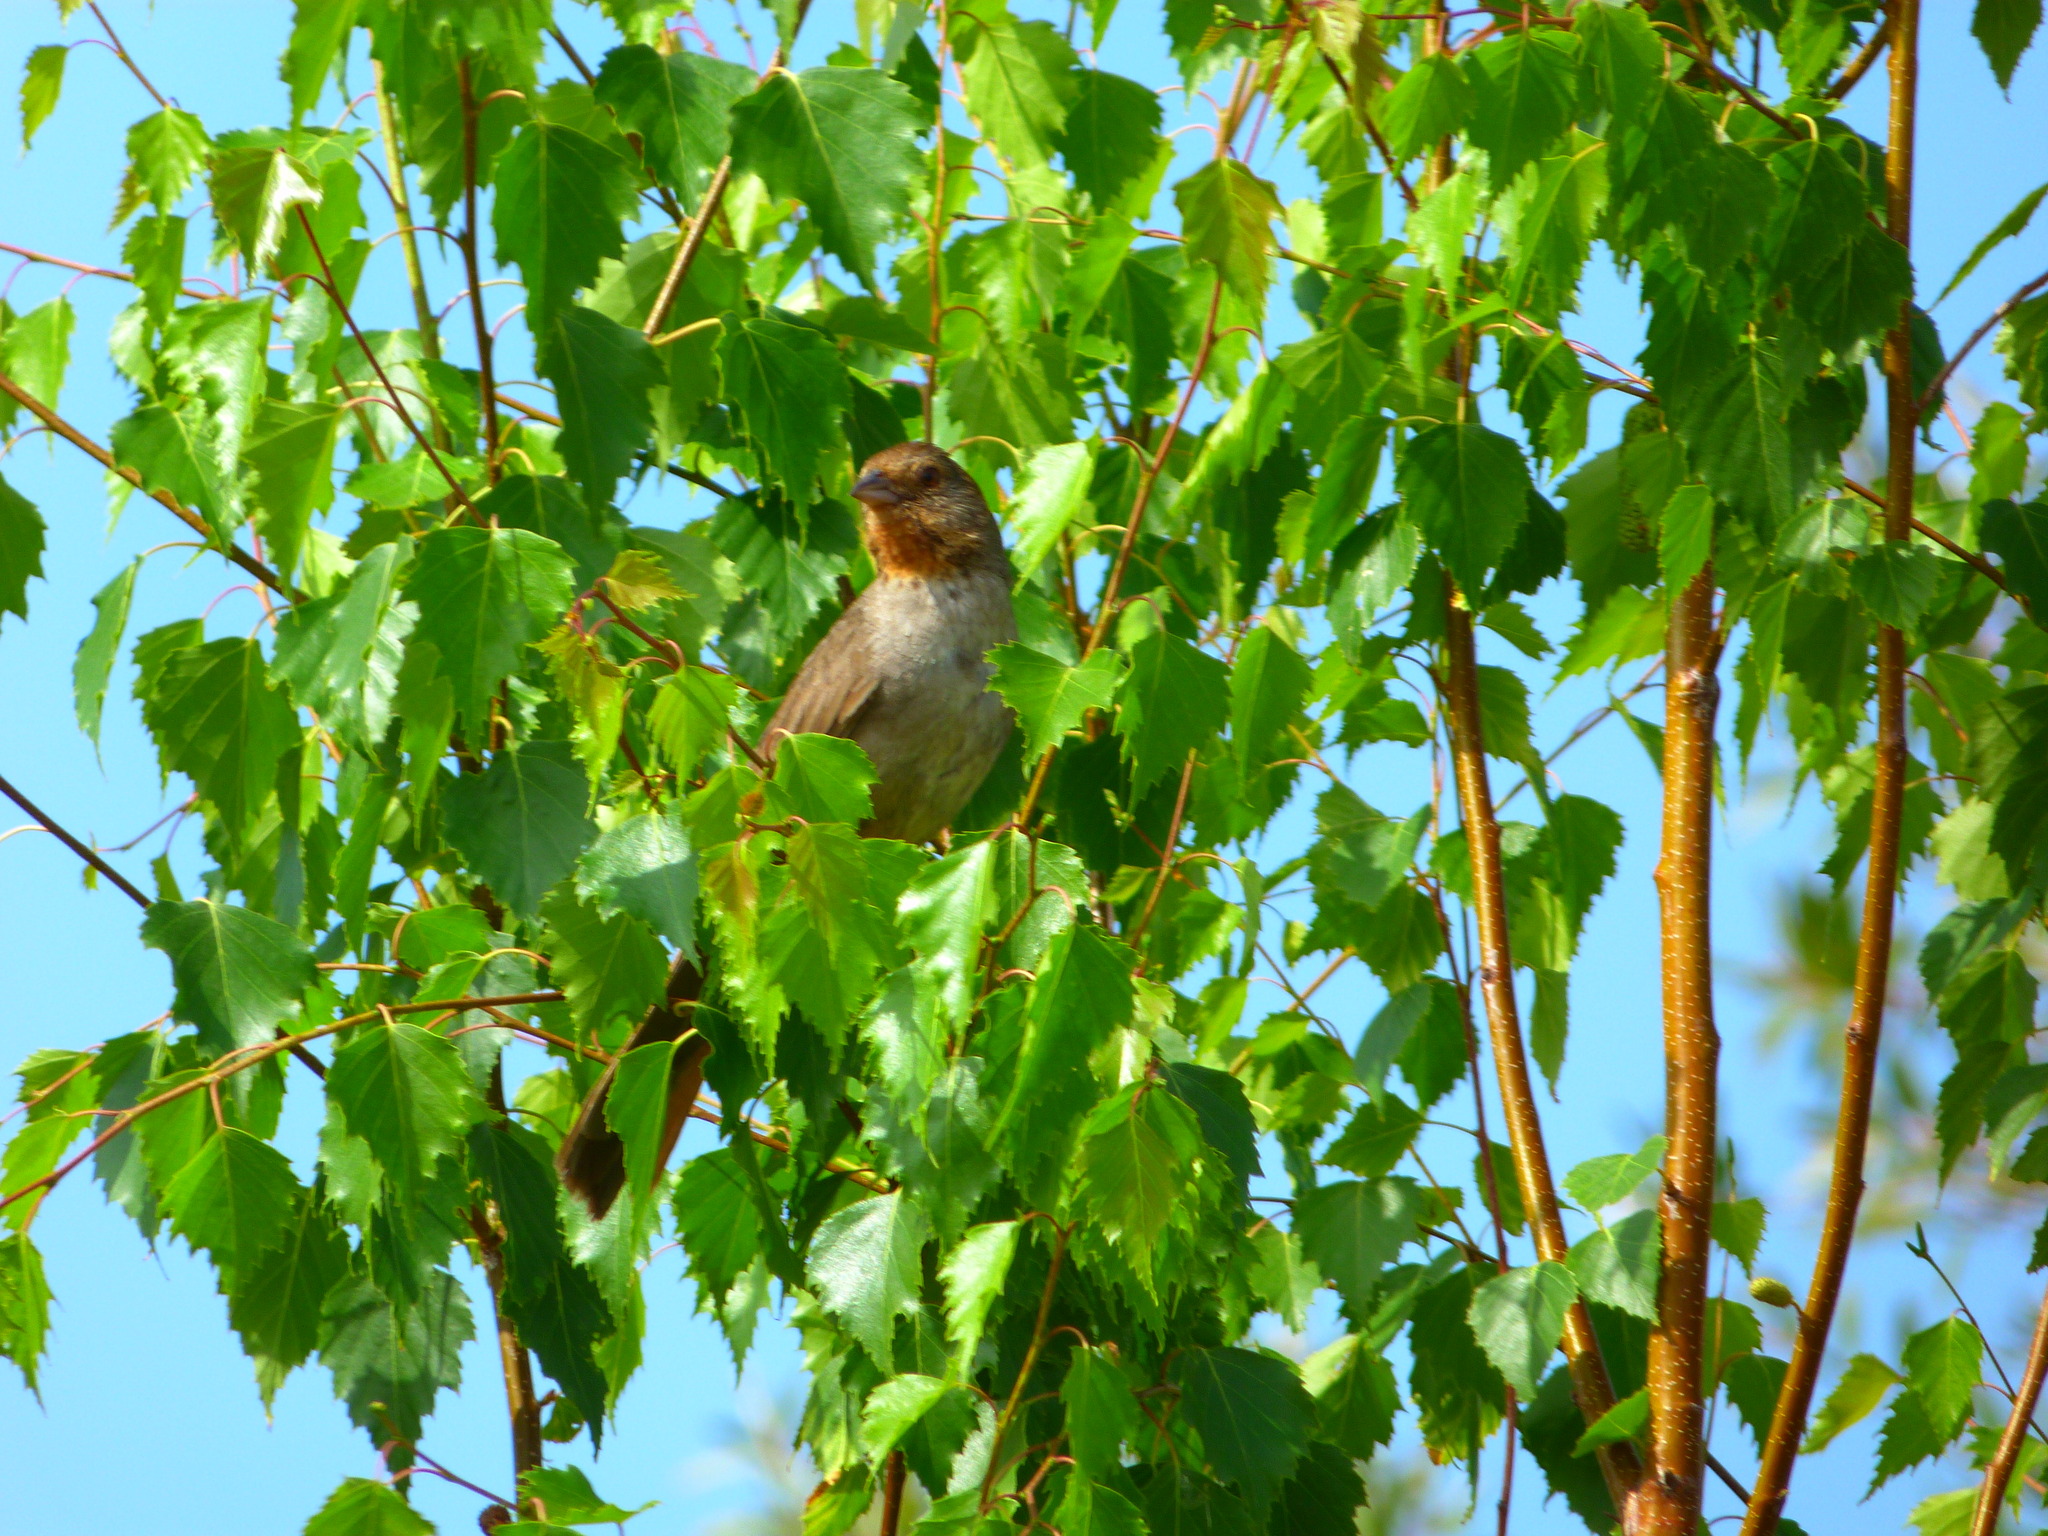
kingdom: Animalia
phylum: Chordata
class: Aves
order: Passeriformes
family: Passerellidae
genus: Melozone
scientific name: Melozone crissalis
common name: California towhee
